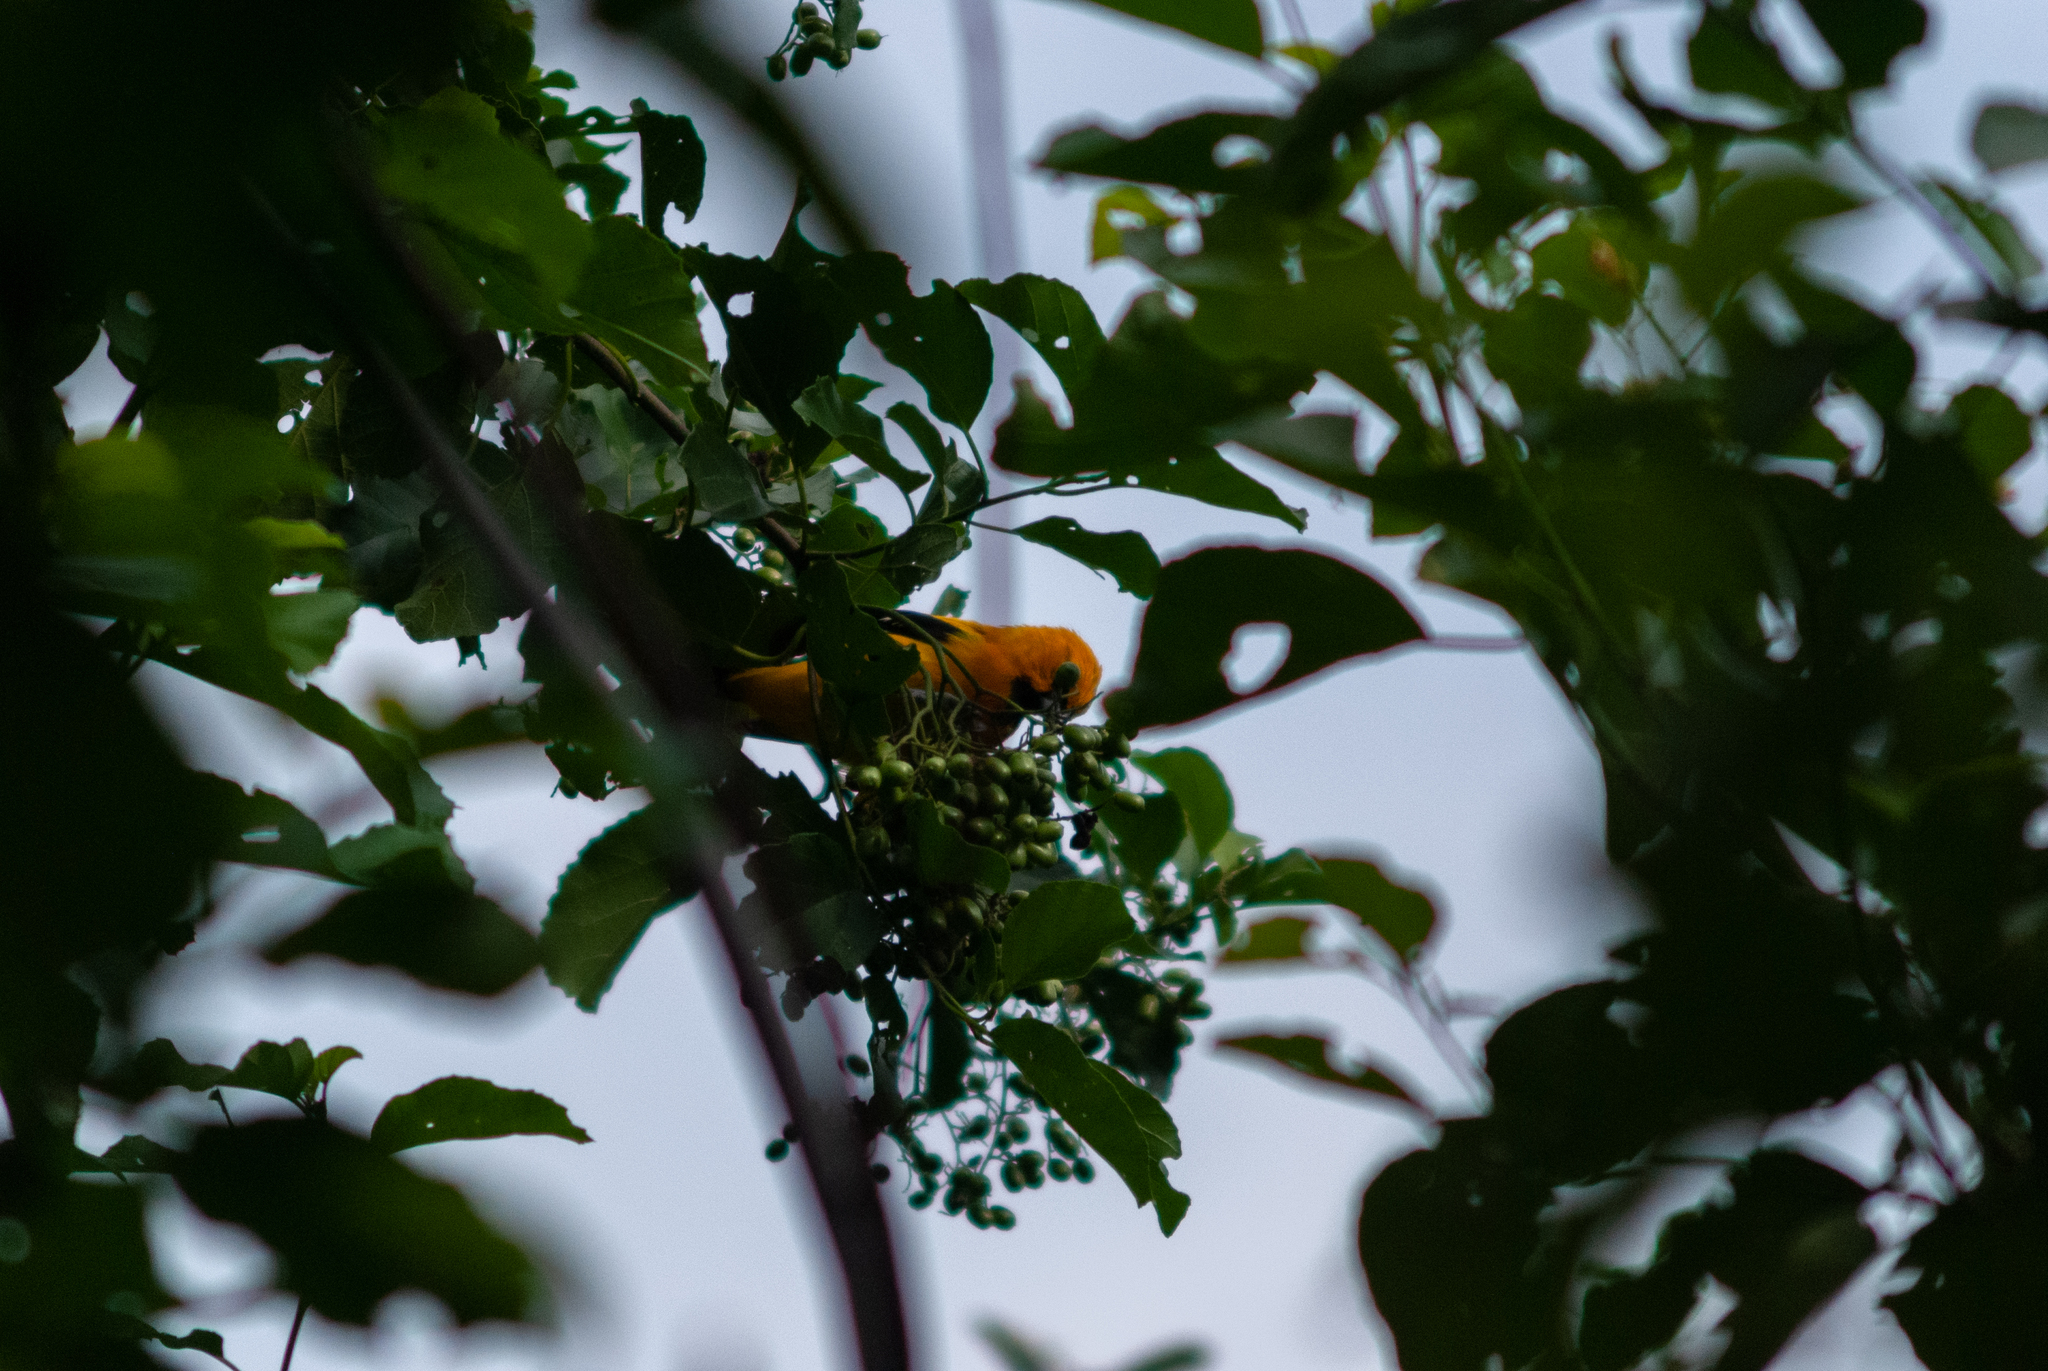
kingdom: Animalia
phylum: Chordata
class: Aves
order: Passeriformes
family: Icteridae
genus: Icterus
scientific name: Icterus nigrogularis
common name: Yellow oriole
